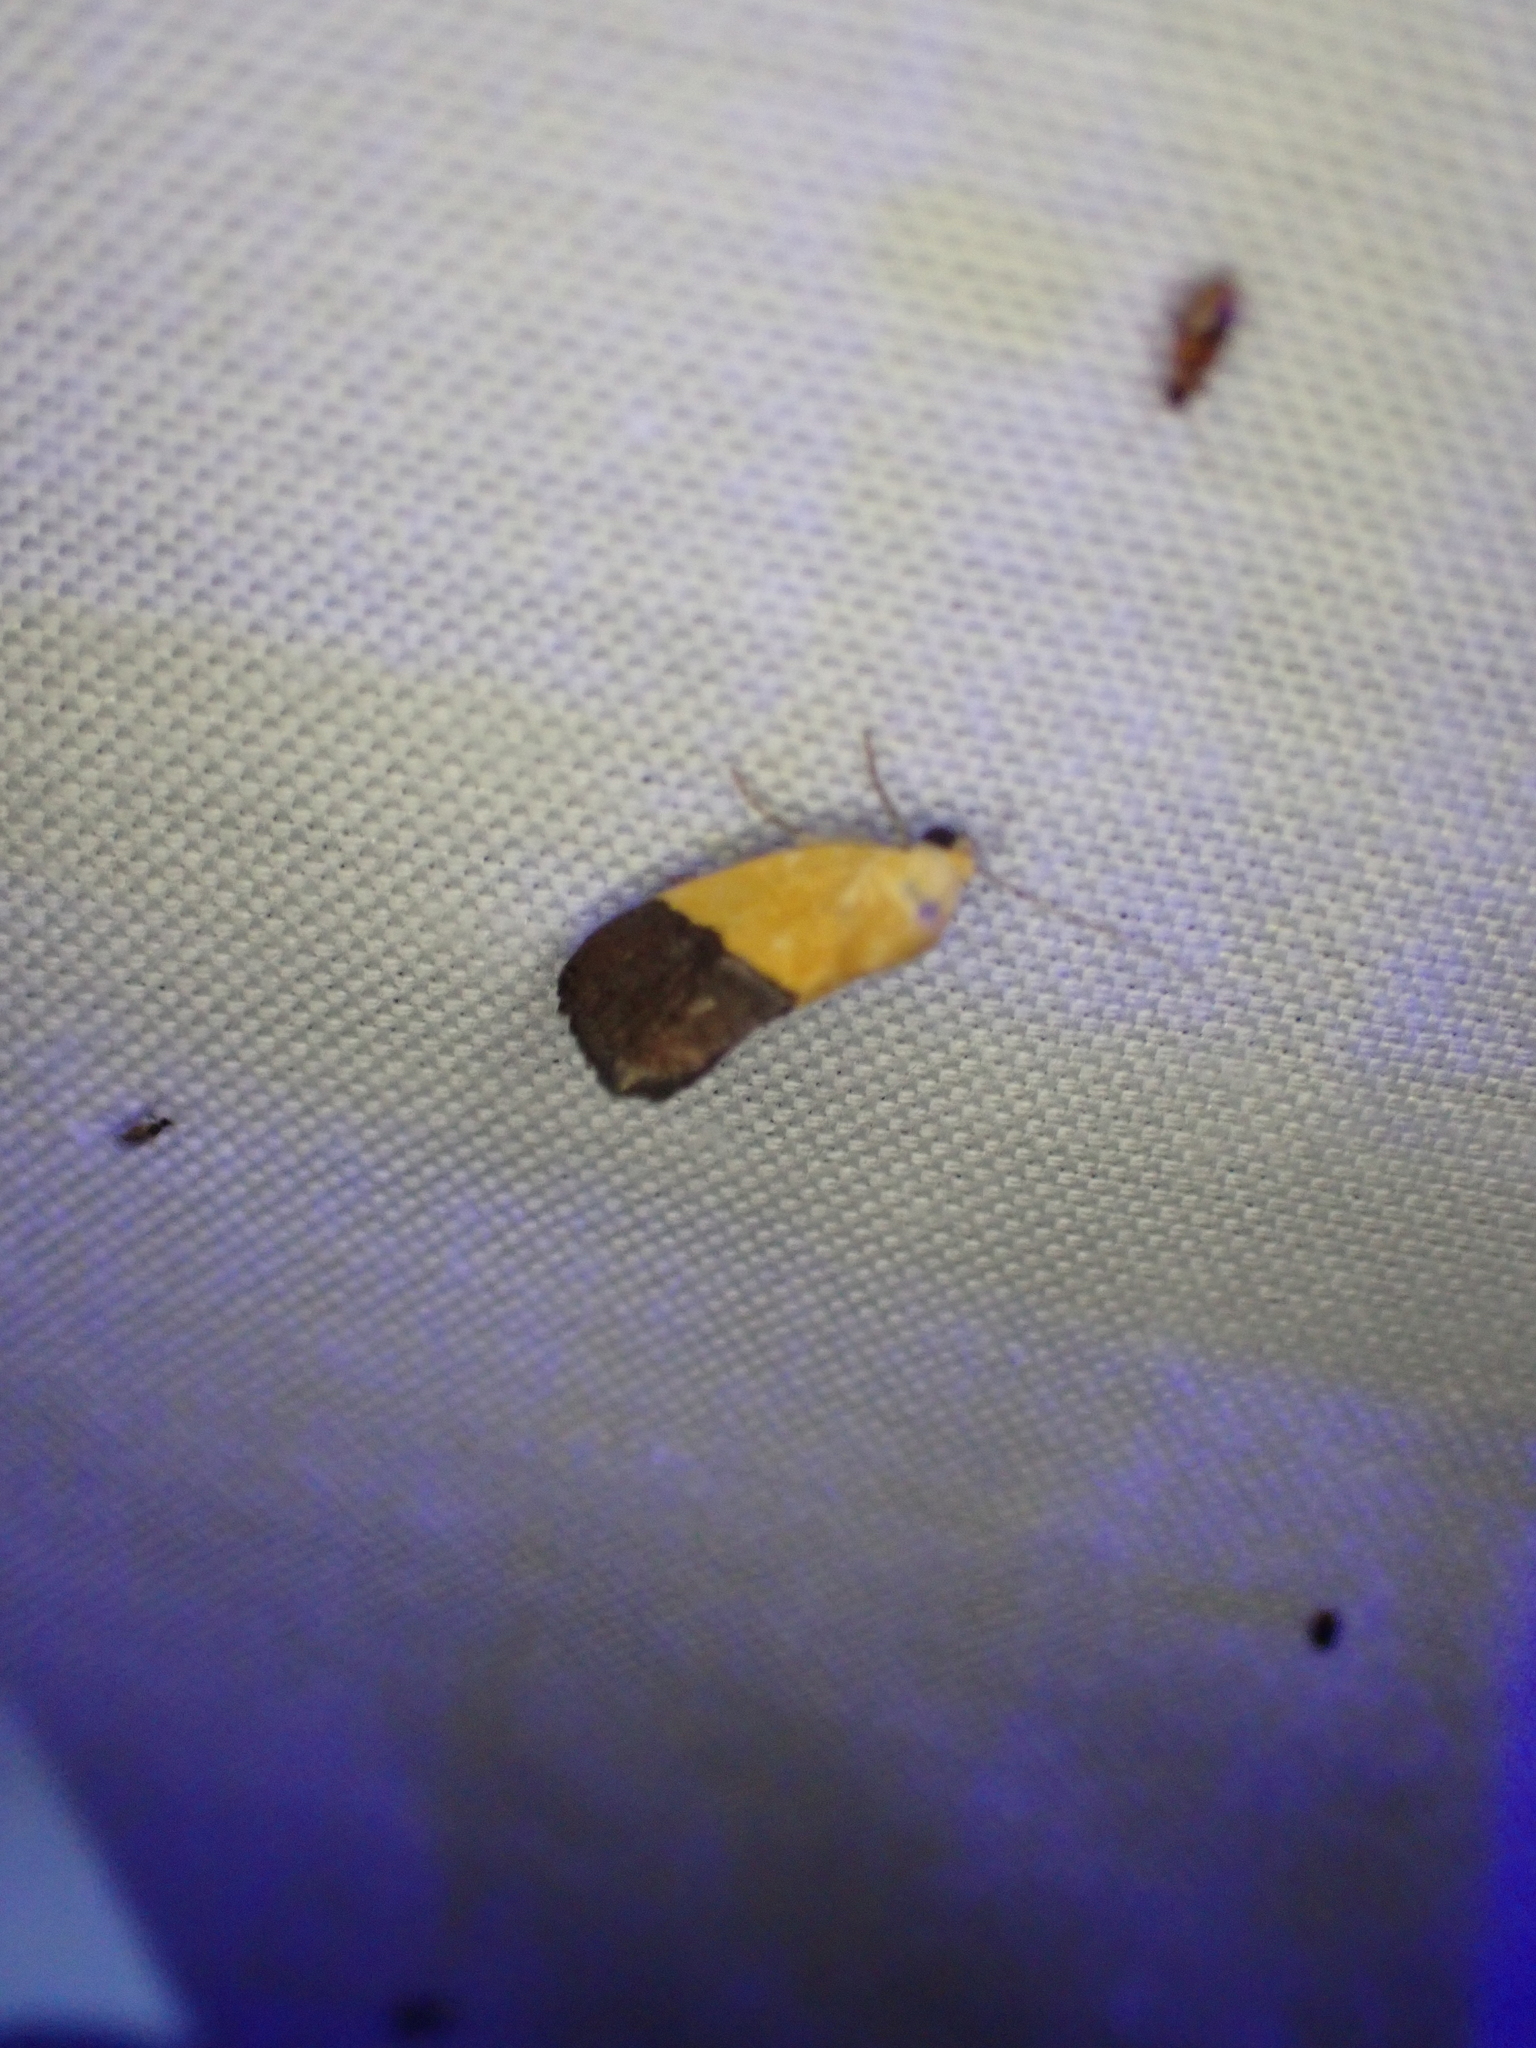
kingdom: Animalia
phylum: Arthropoda
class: Insecta
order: Lepidoptera
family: Noctuidae
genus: Acontia
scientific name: Acontia semiflava
